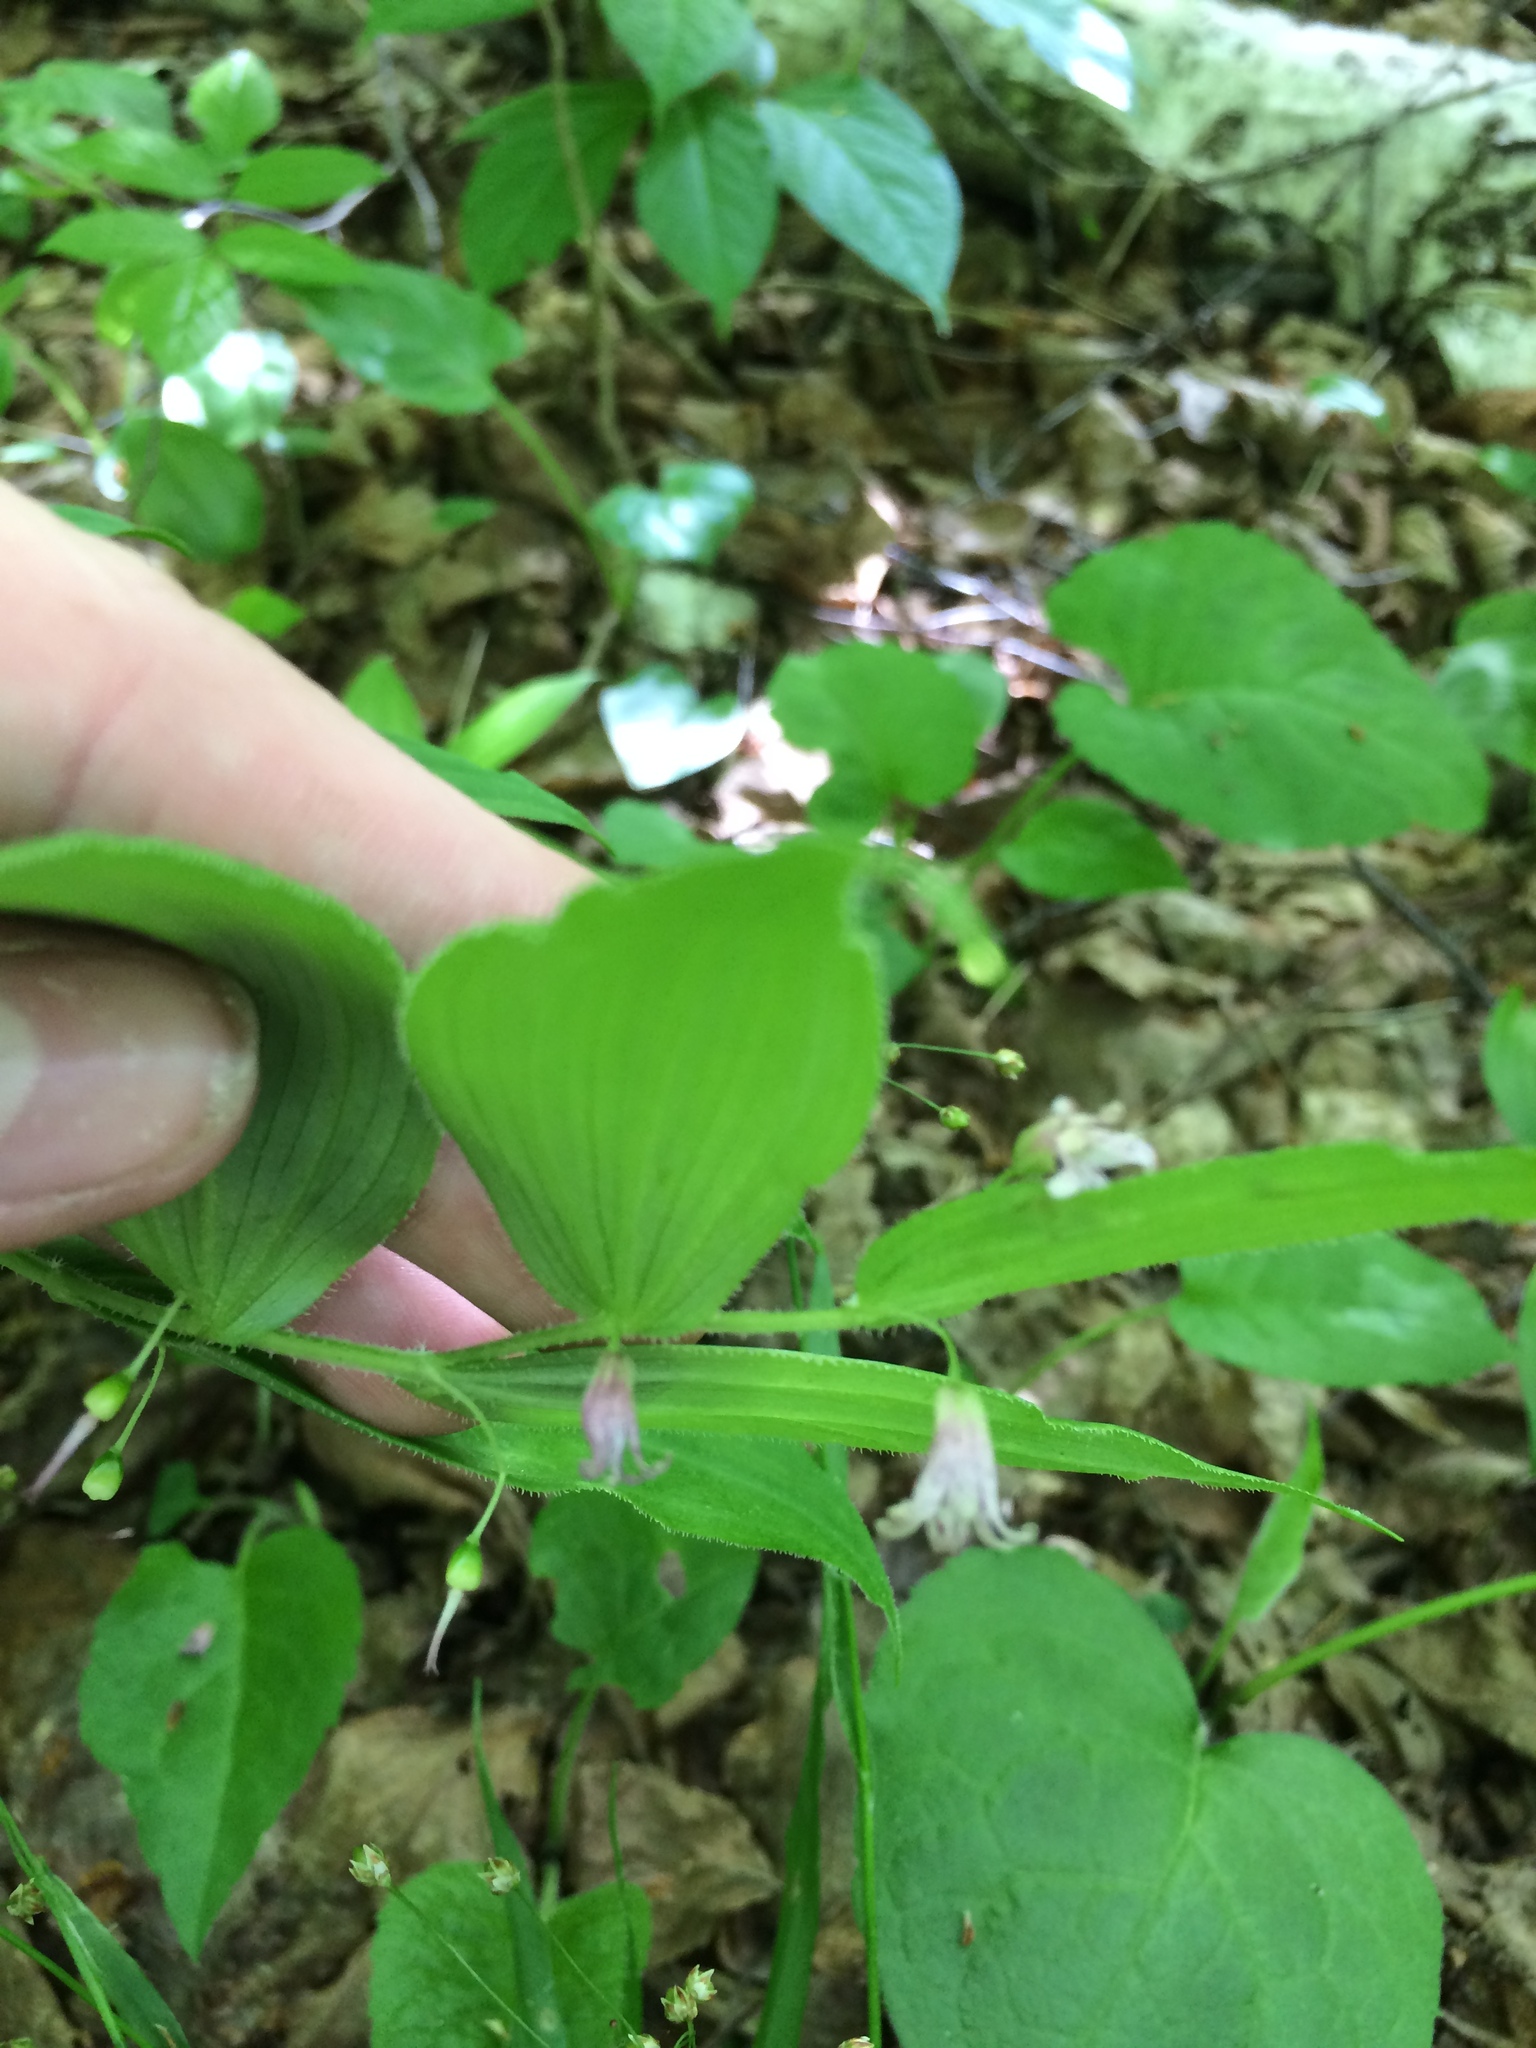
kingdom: Plantae
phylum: Tracheophyta
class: Liliopsida
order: Liliales
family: Liliaceae
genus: Streptopus
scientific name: Streptopus lanceolatus
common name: Rose mandarin
